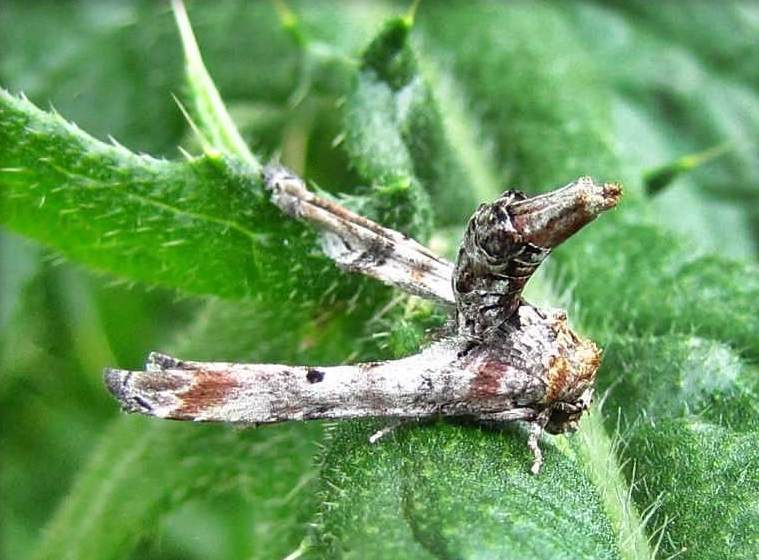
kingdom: Animalia
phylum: Arthropoda
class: Insecta
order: Lepidoptera
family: Euteliidae
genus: Marathyssa
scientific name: Marathyssa inficita
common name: Dark marathyssa moth
